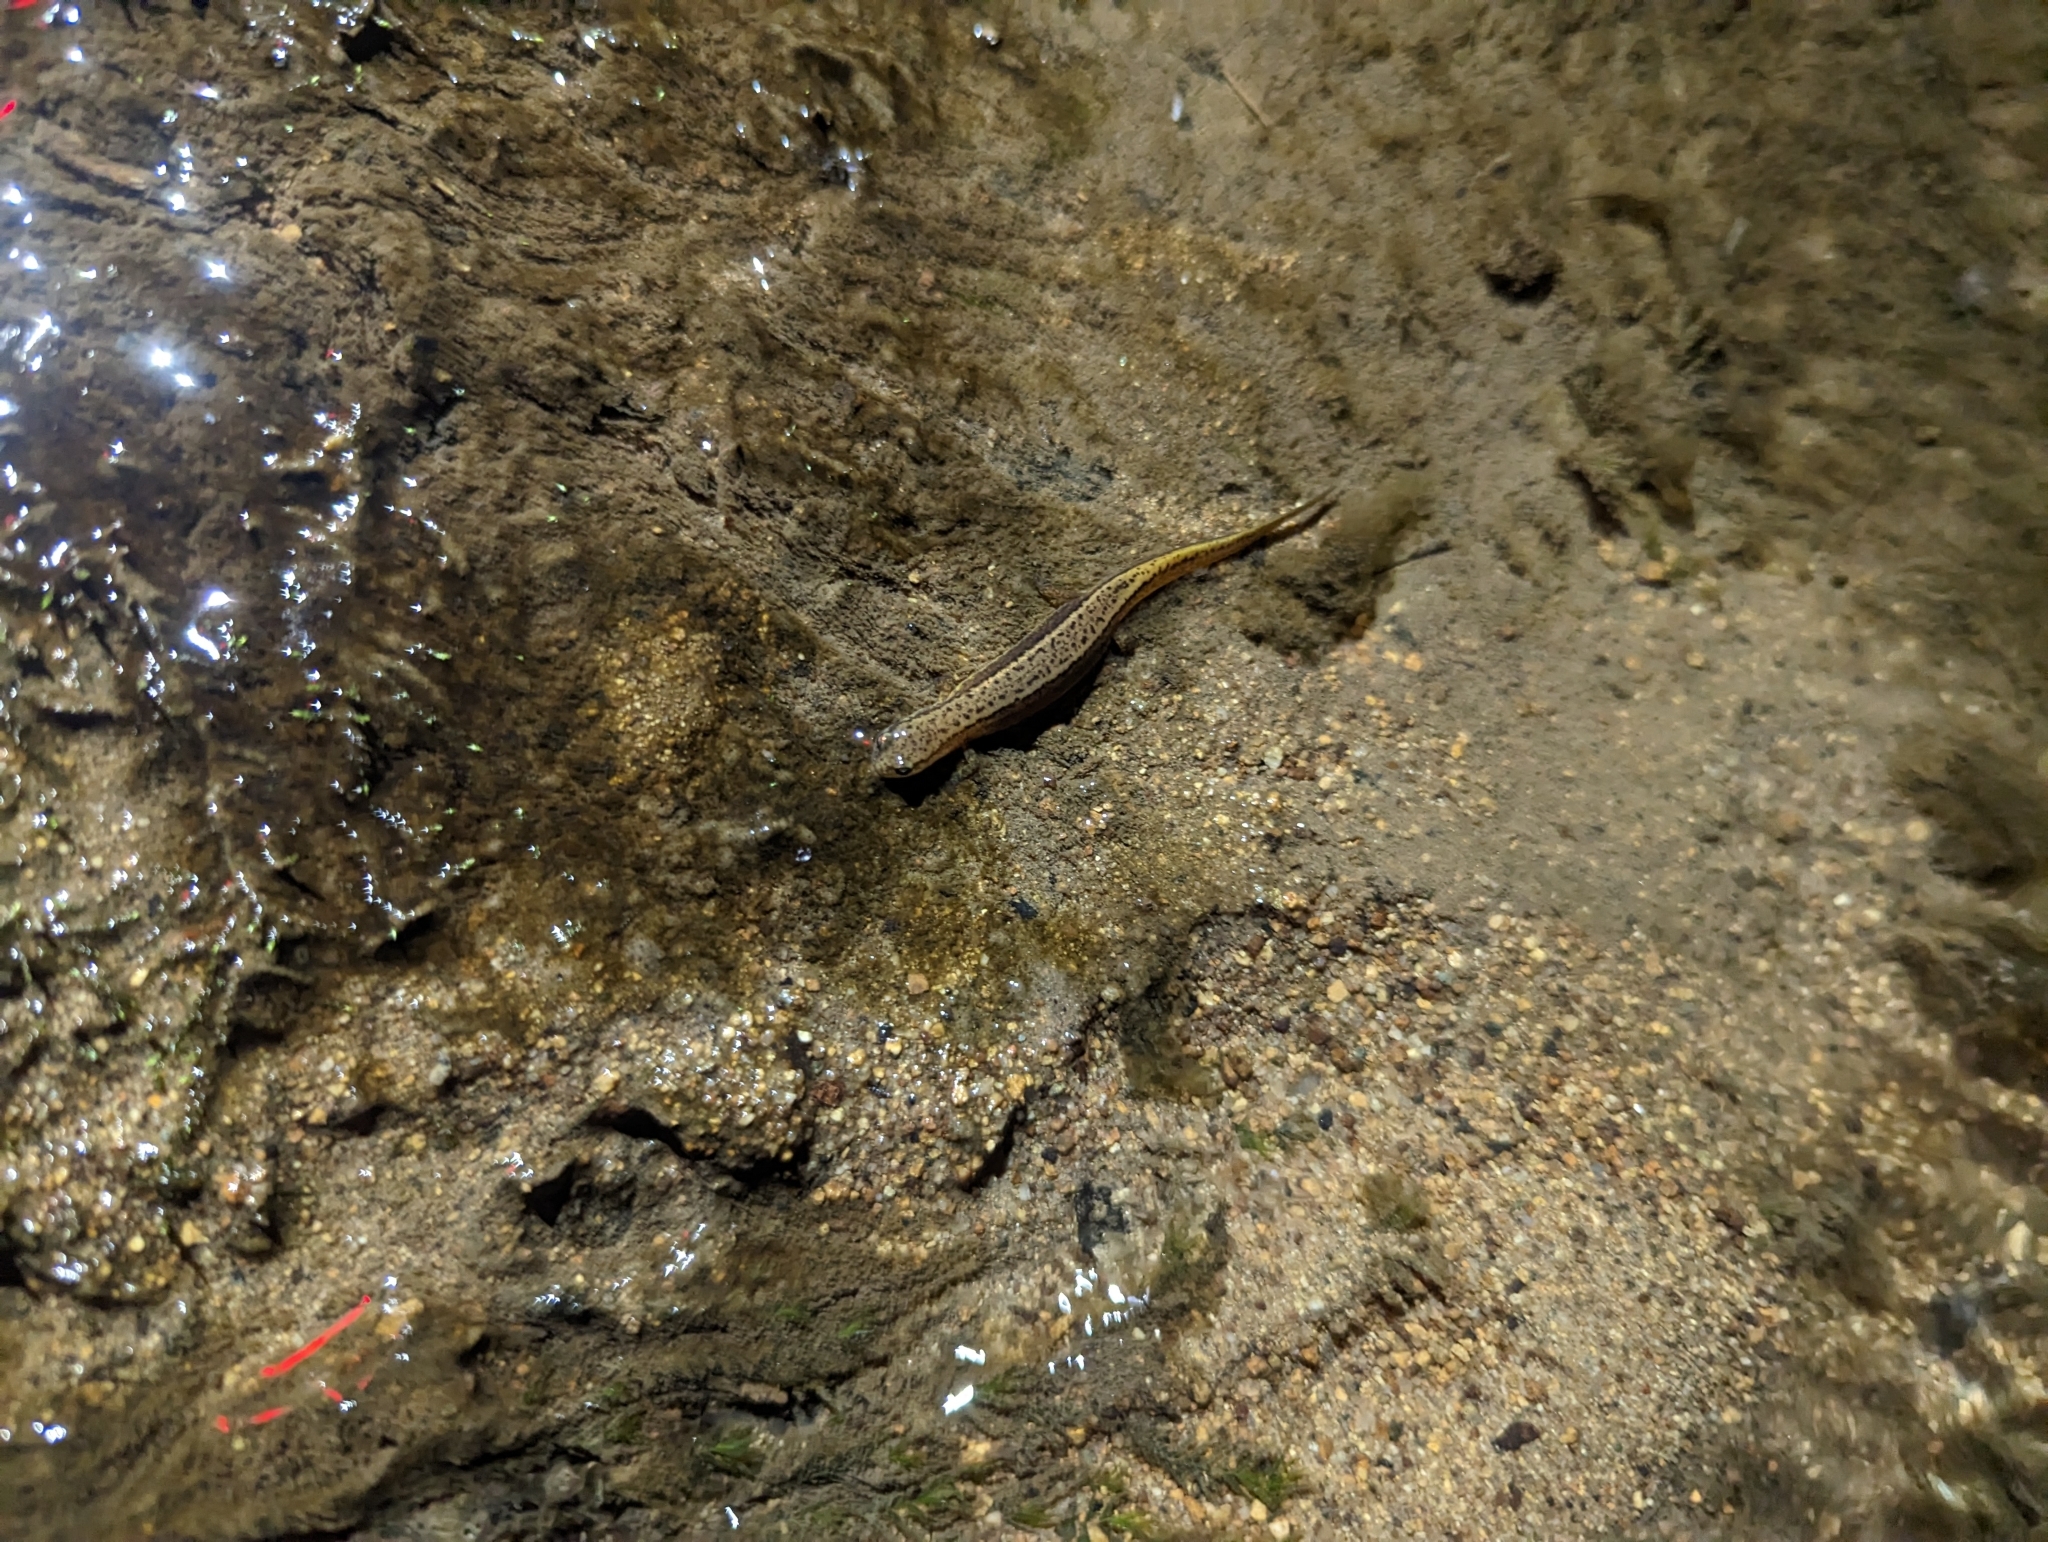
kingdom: Animalia
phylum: Chordata
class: Amphibia
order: Caudata
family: Plethodontidae
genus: Eurycea
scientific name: Eurycea cirrigera
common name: Southern two-lined salamander
